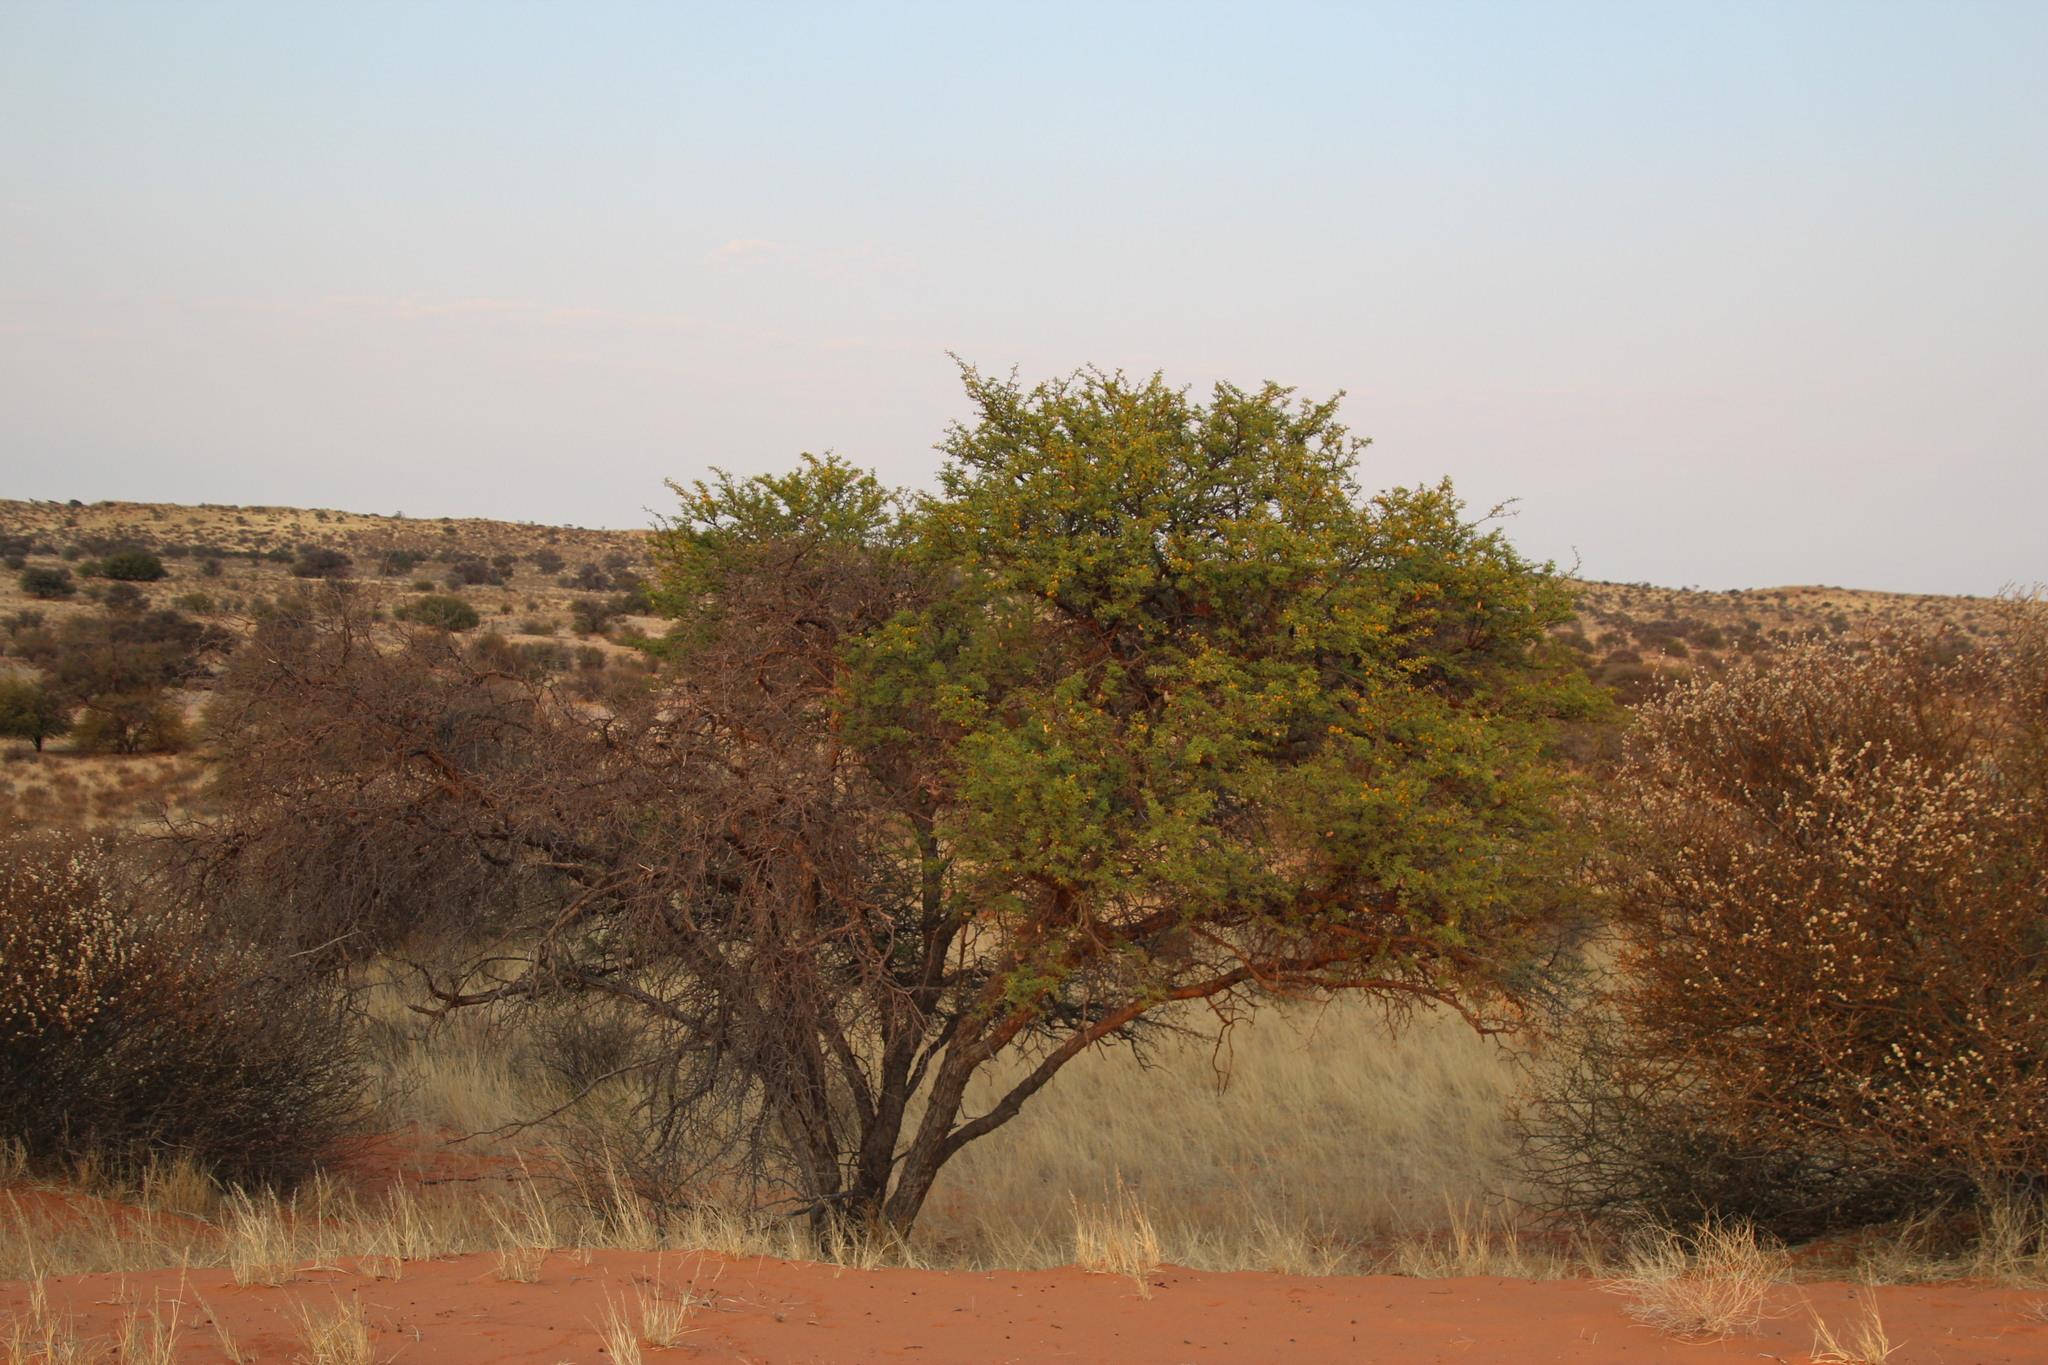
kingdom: Plantae
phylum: Tracheophyta
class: Magnoliopsida
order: Fabales
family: Fabaceae
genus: Vachellia
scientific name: Vachellia erioloba
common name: Camel thorn
